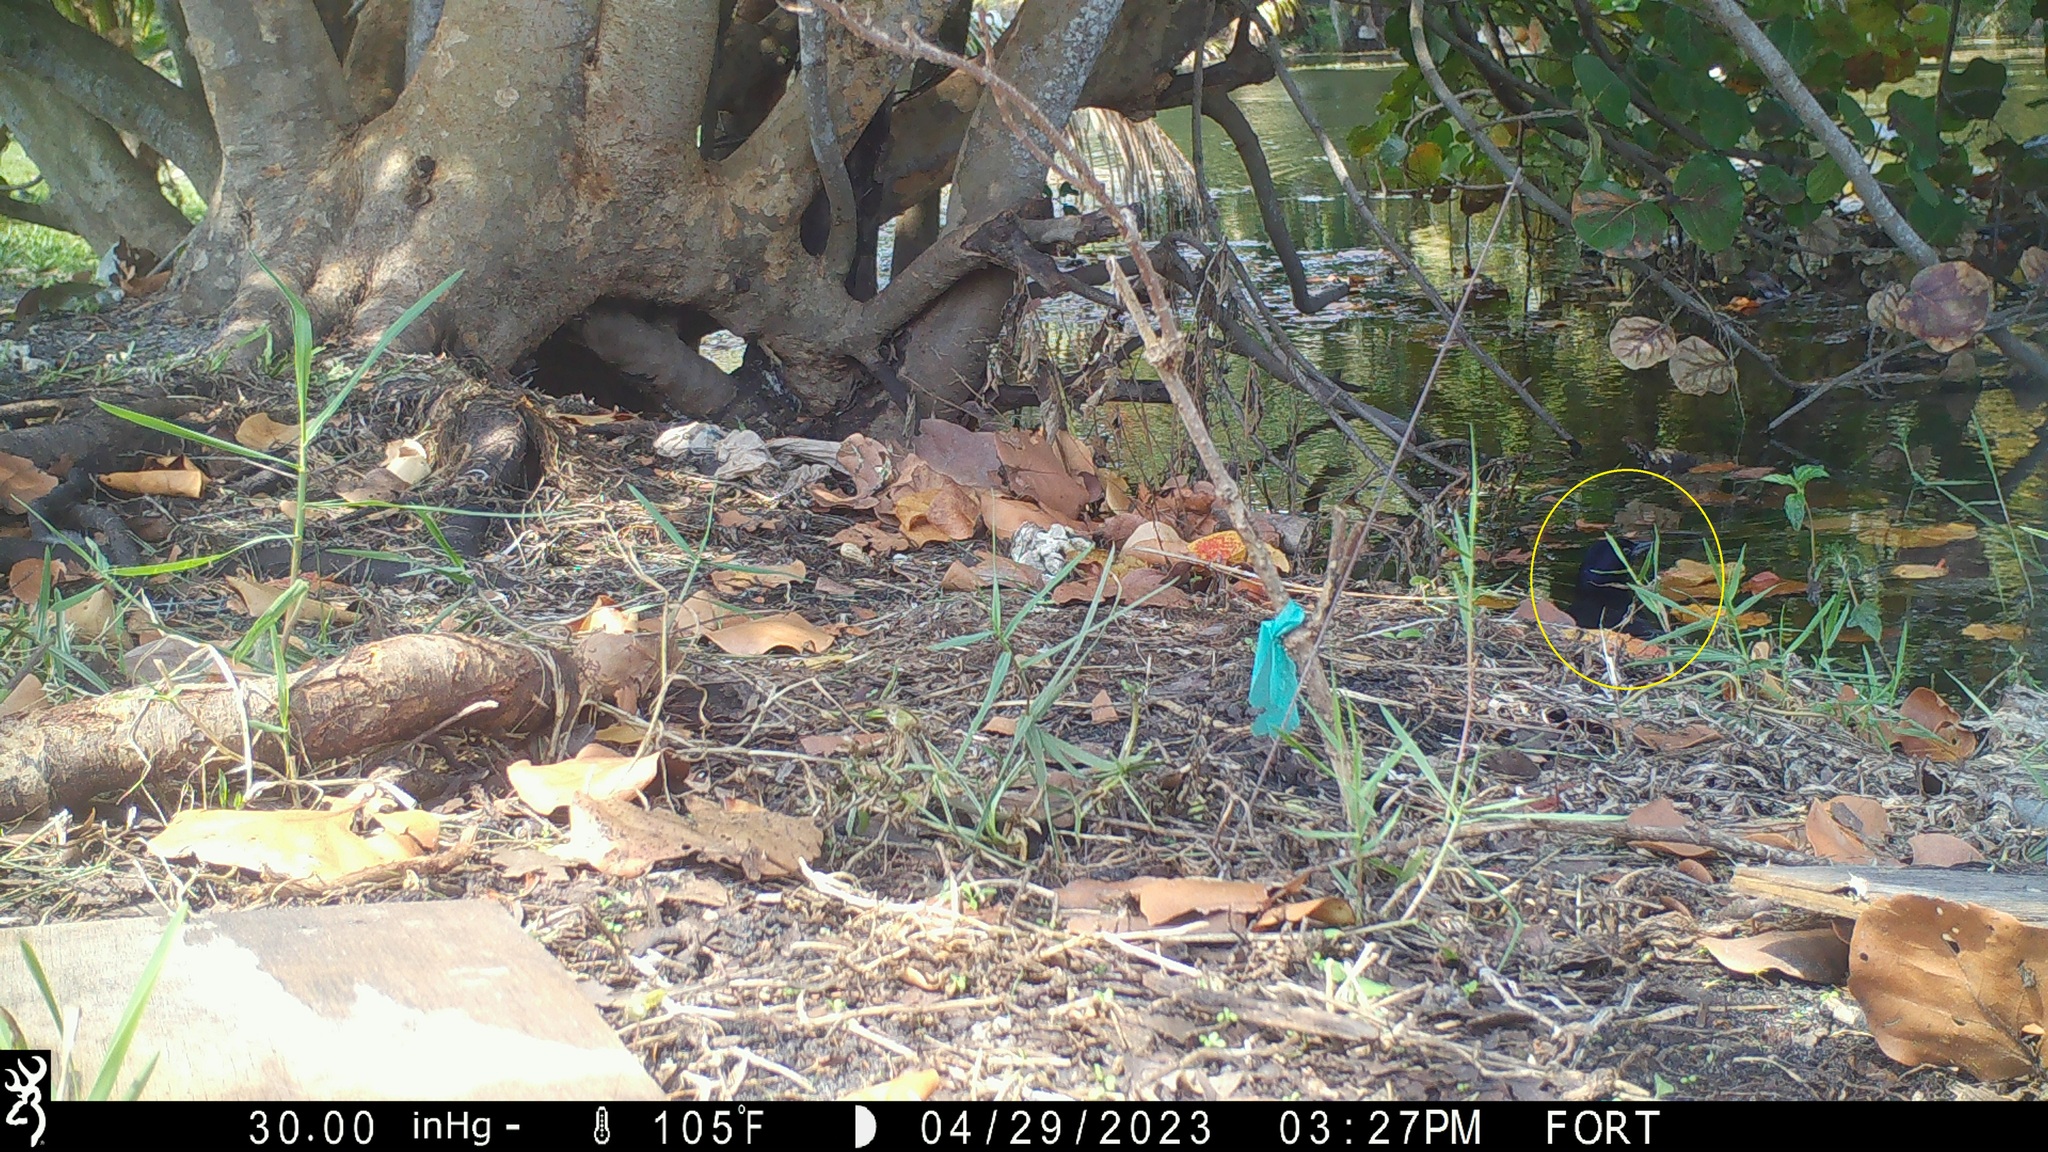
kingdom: Animalia
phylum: Chordata
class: Aves
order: Passeriformes
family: Icteridae
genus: Quiscalus
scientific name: Quiscalus major
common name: Boat-tailed grackle
